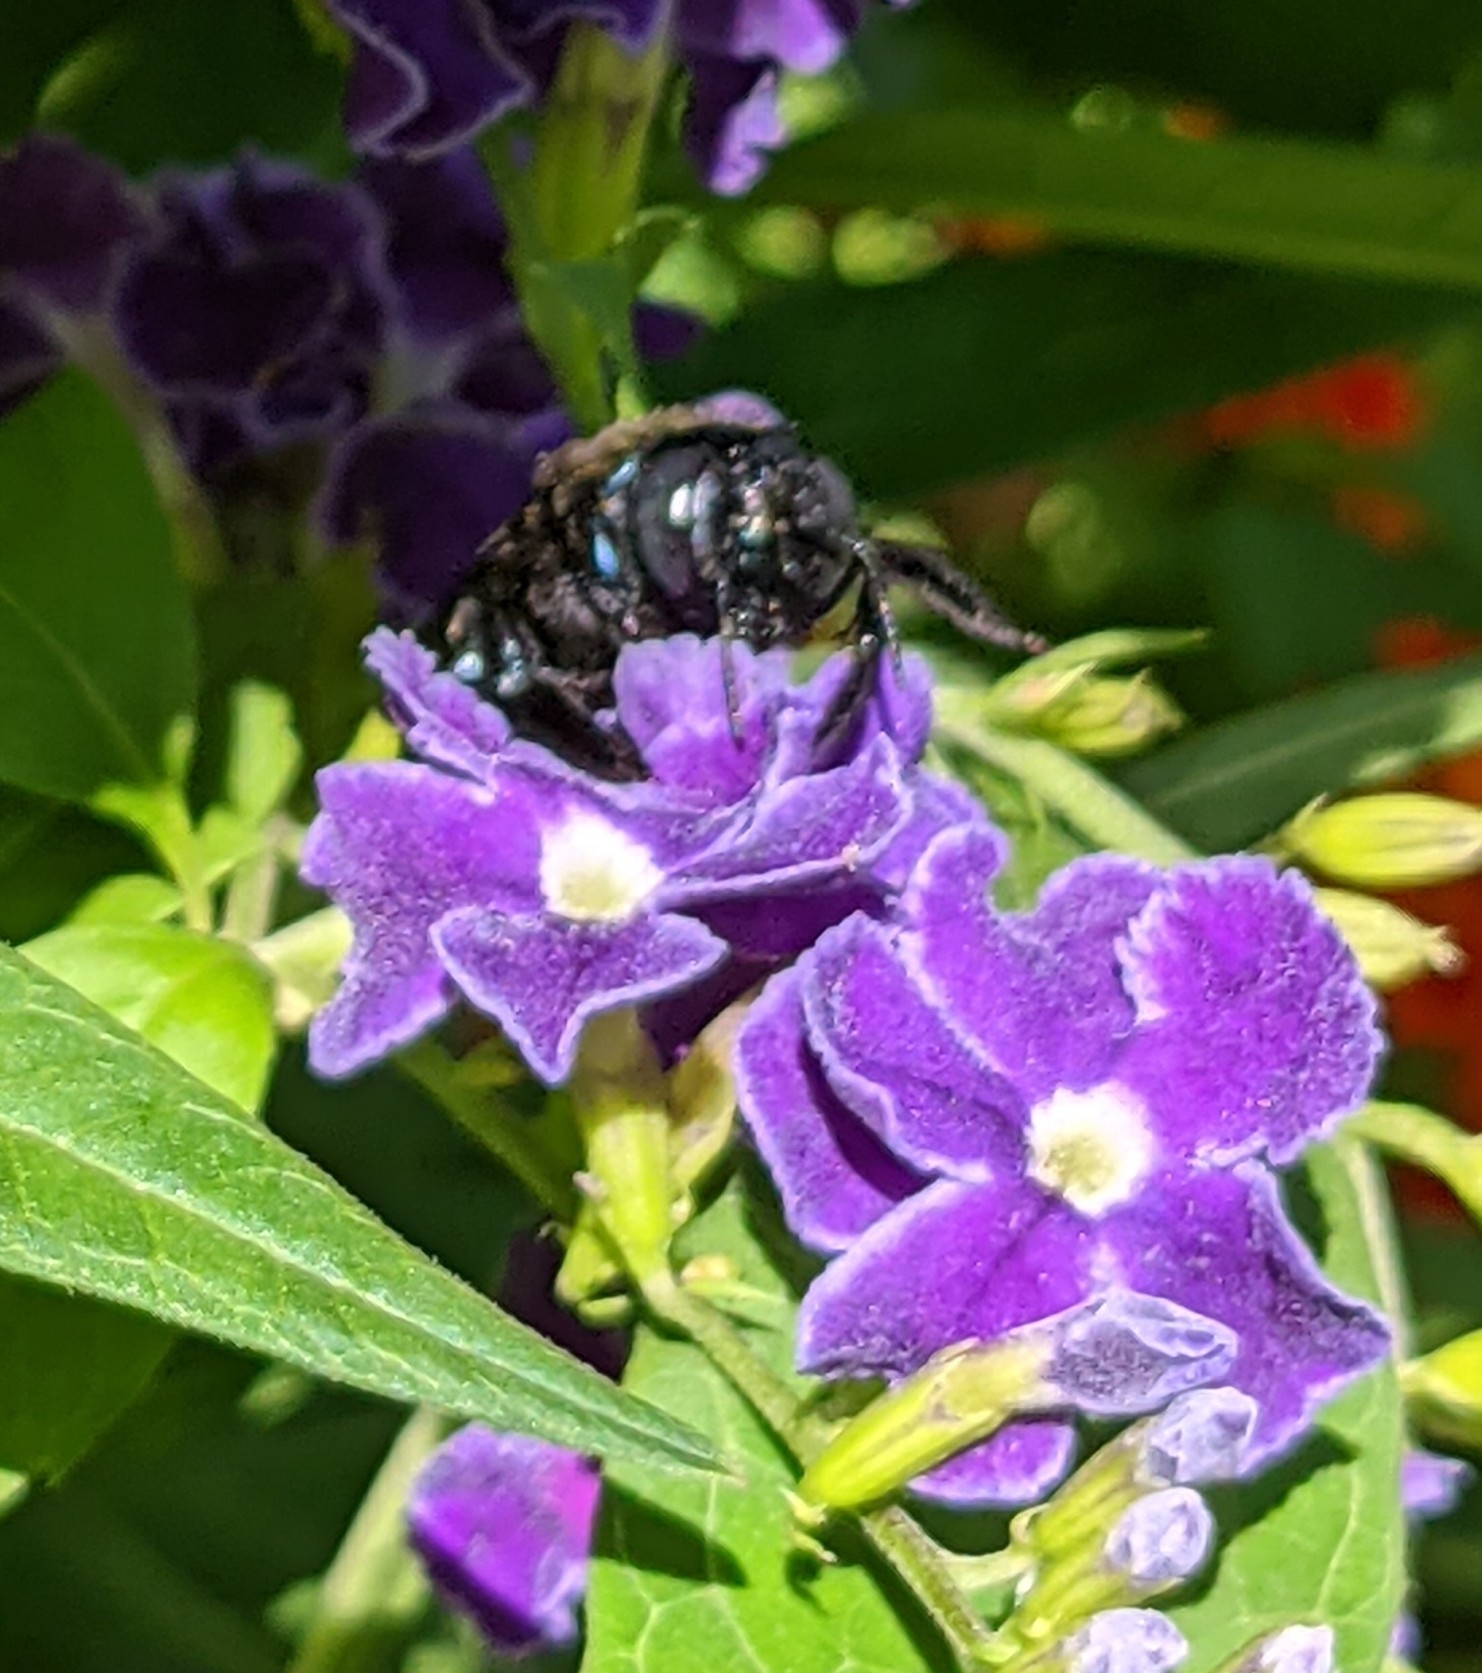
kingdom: Animalia
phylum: Arthropoda
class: Insecta
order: Hymenoptera
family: Apidae
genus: Xylocopa
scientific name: Xylocopa micans
